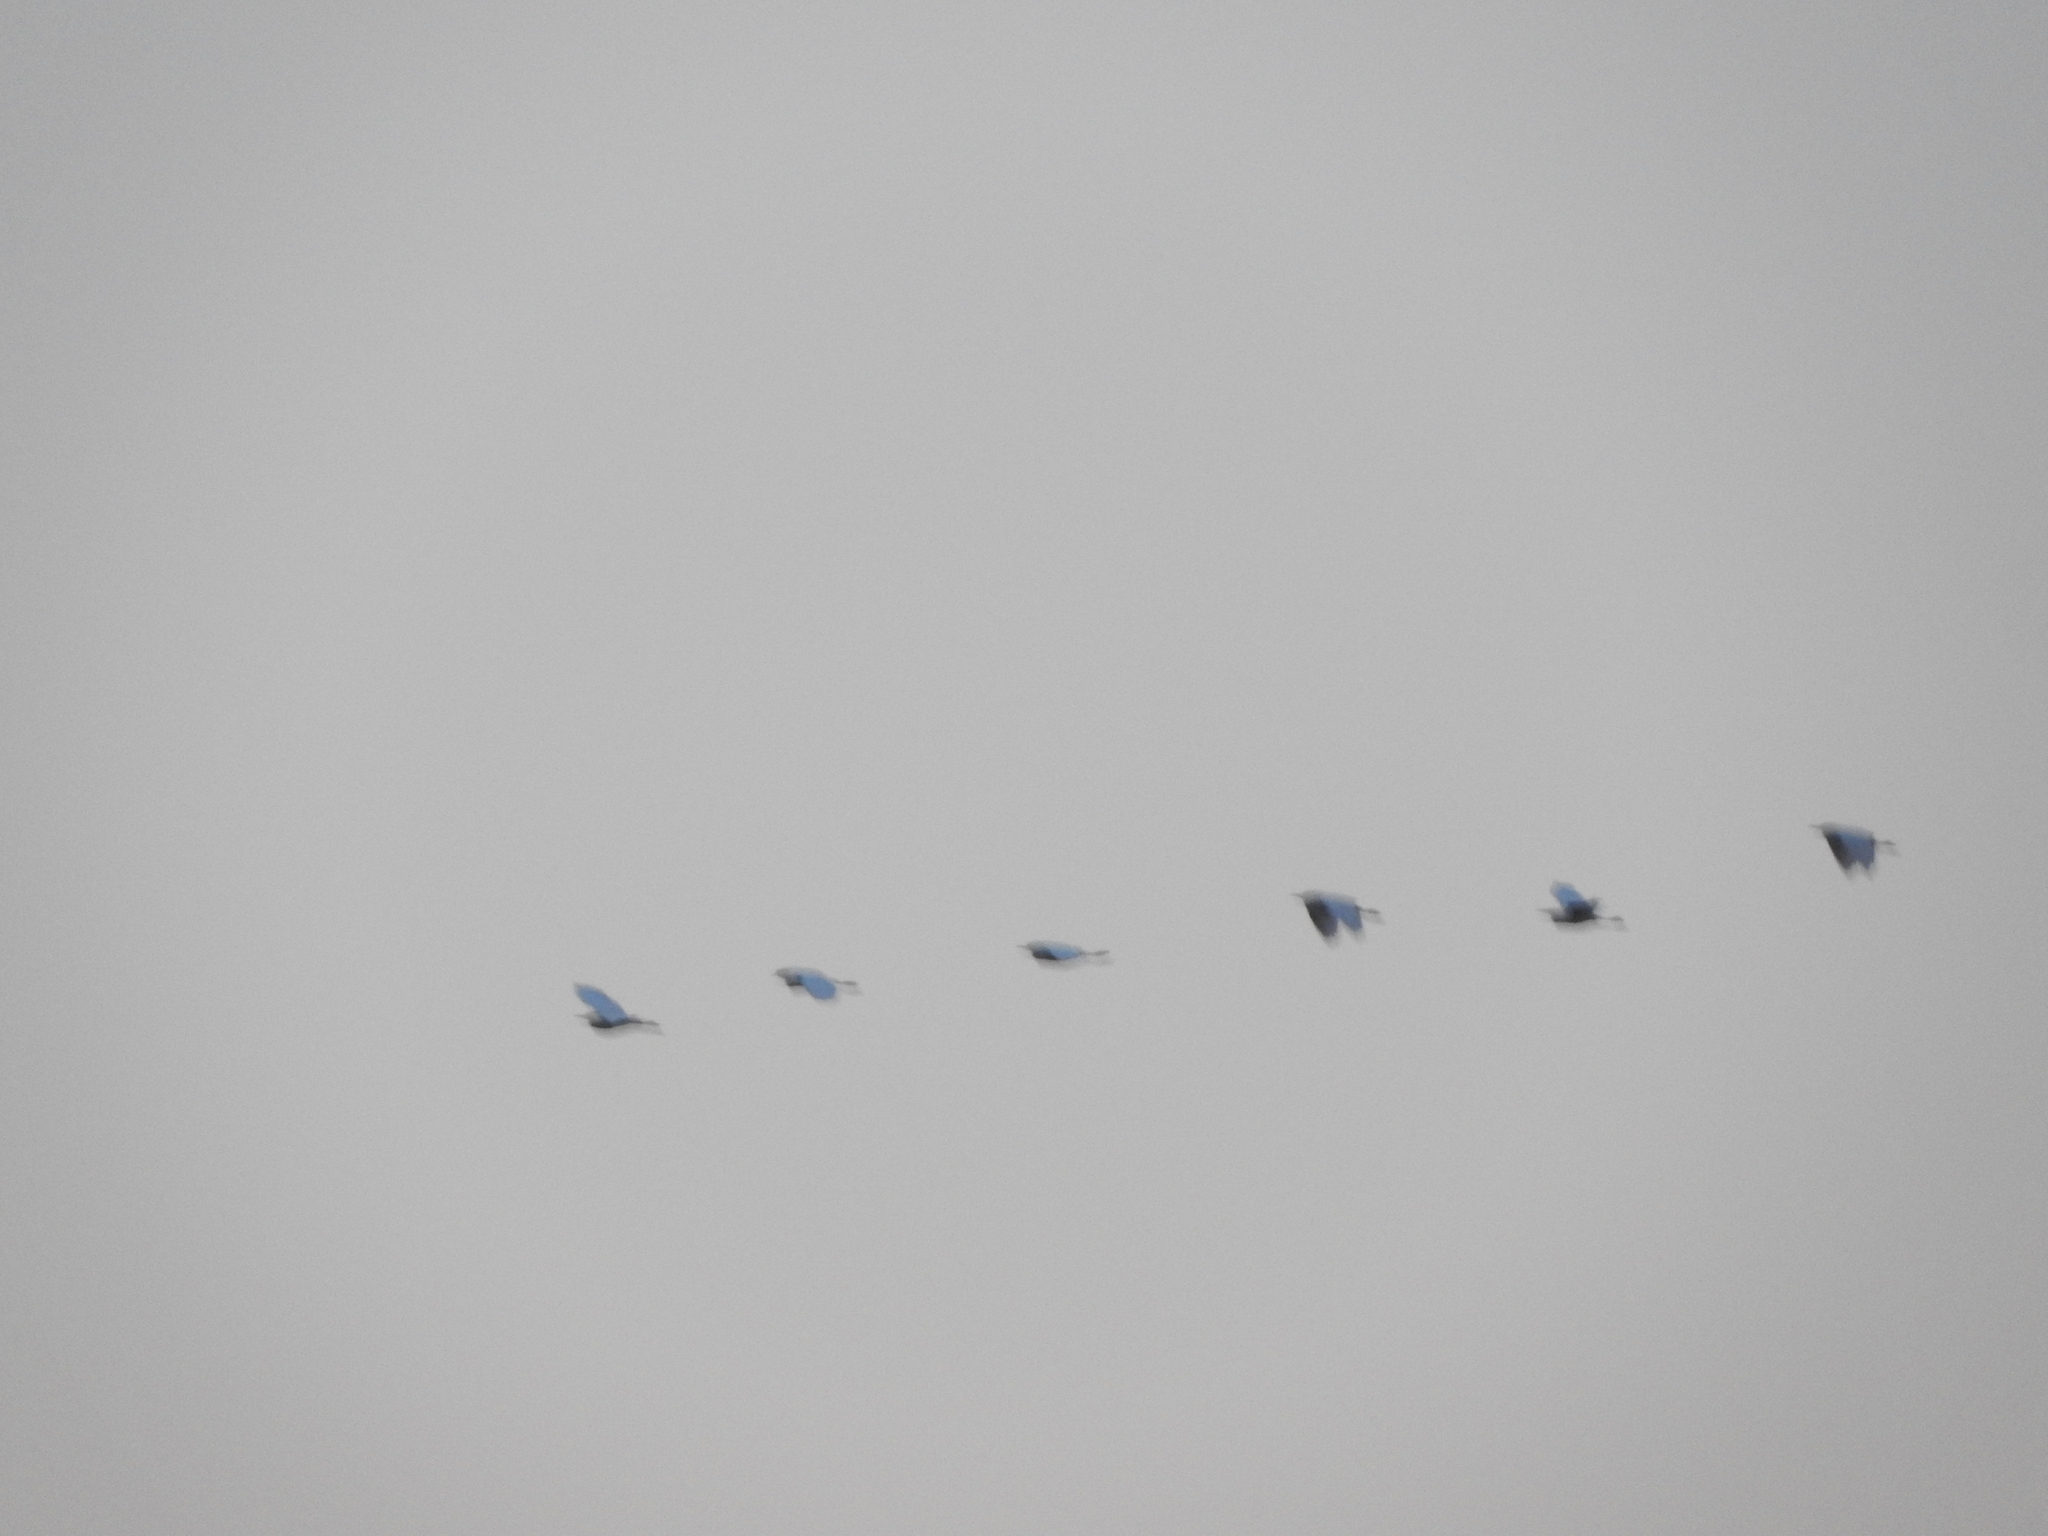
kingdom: Animalia
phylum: Chordata
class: Aves
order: Pelecaniformes
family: Ardeidae
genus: Bubulcus
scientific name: Bubulcus ibis
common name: Cattle egret
